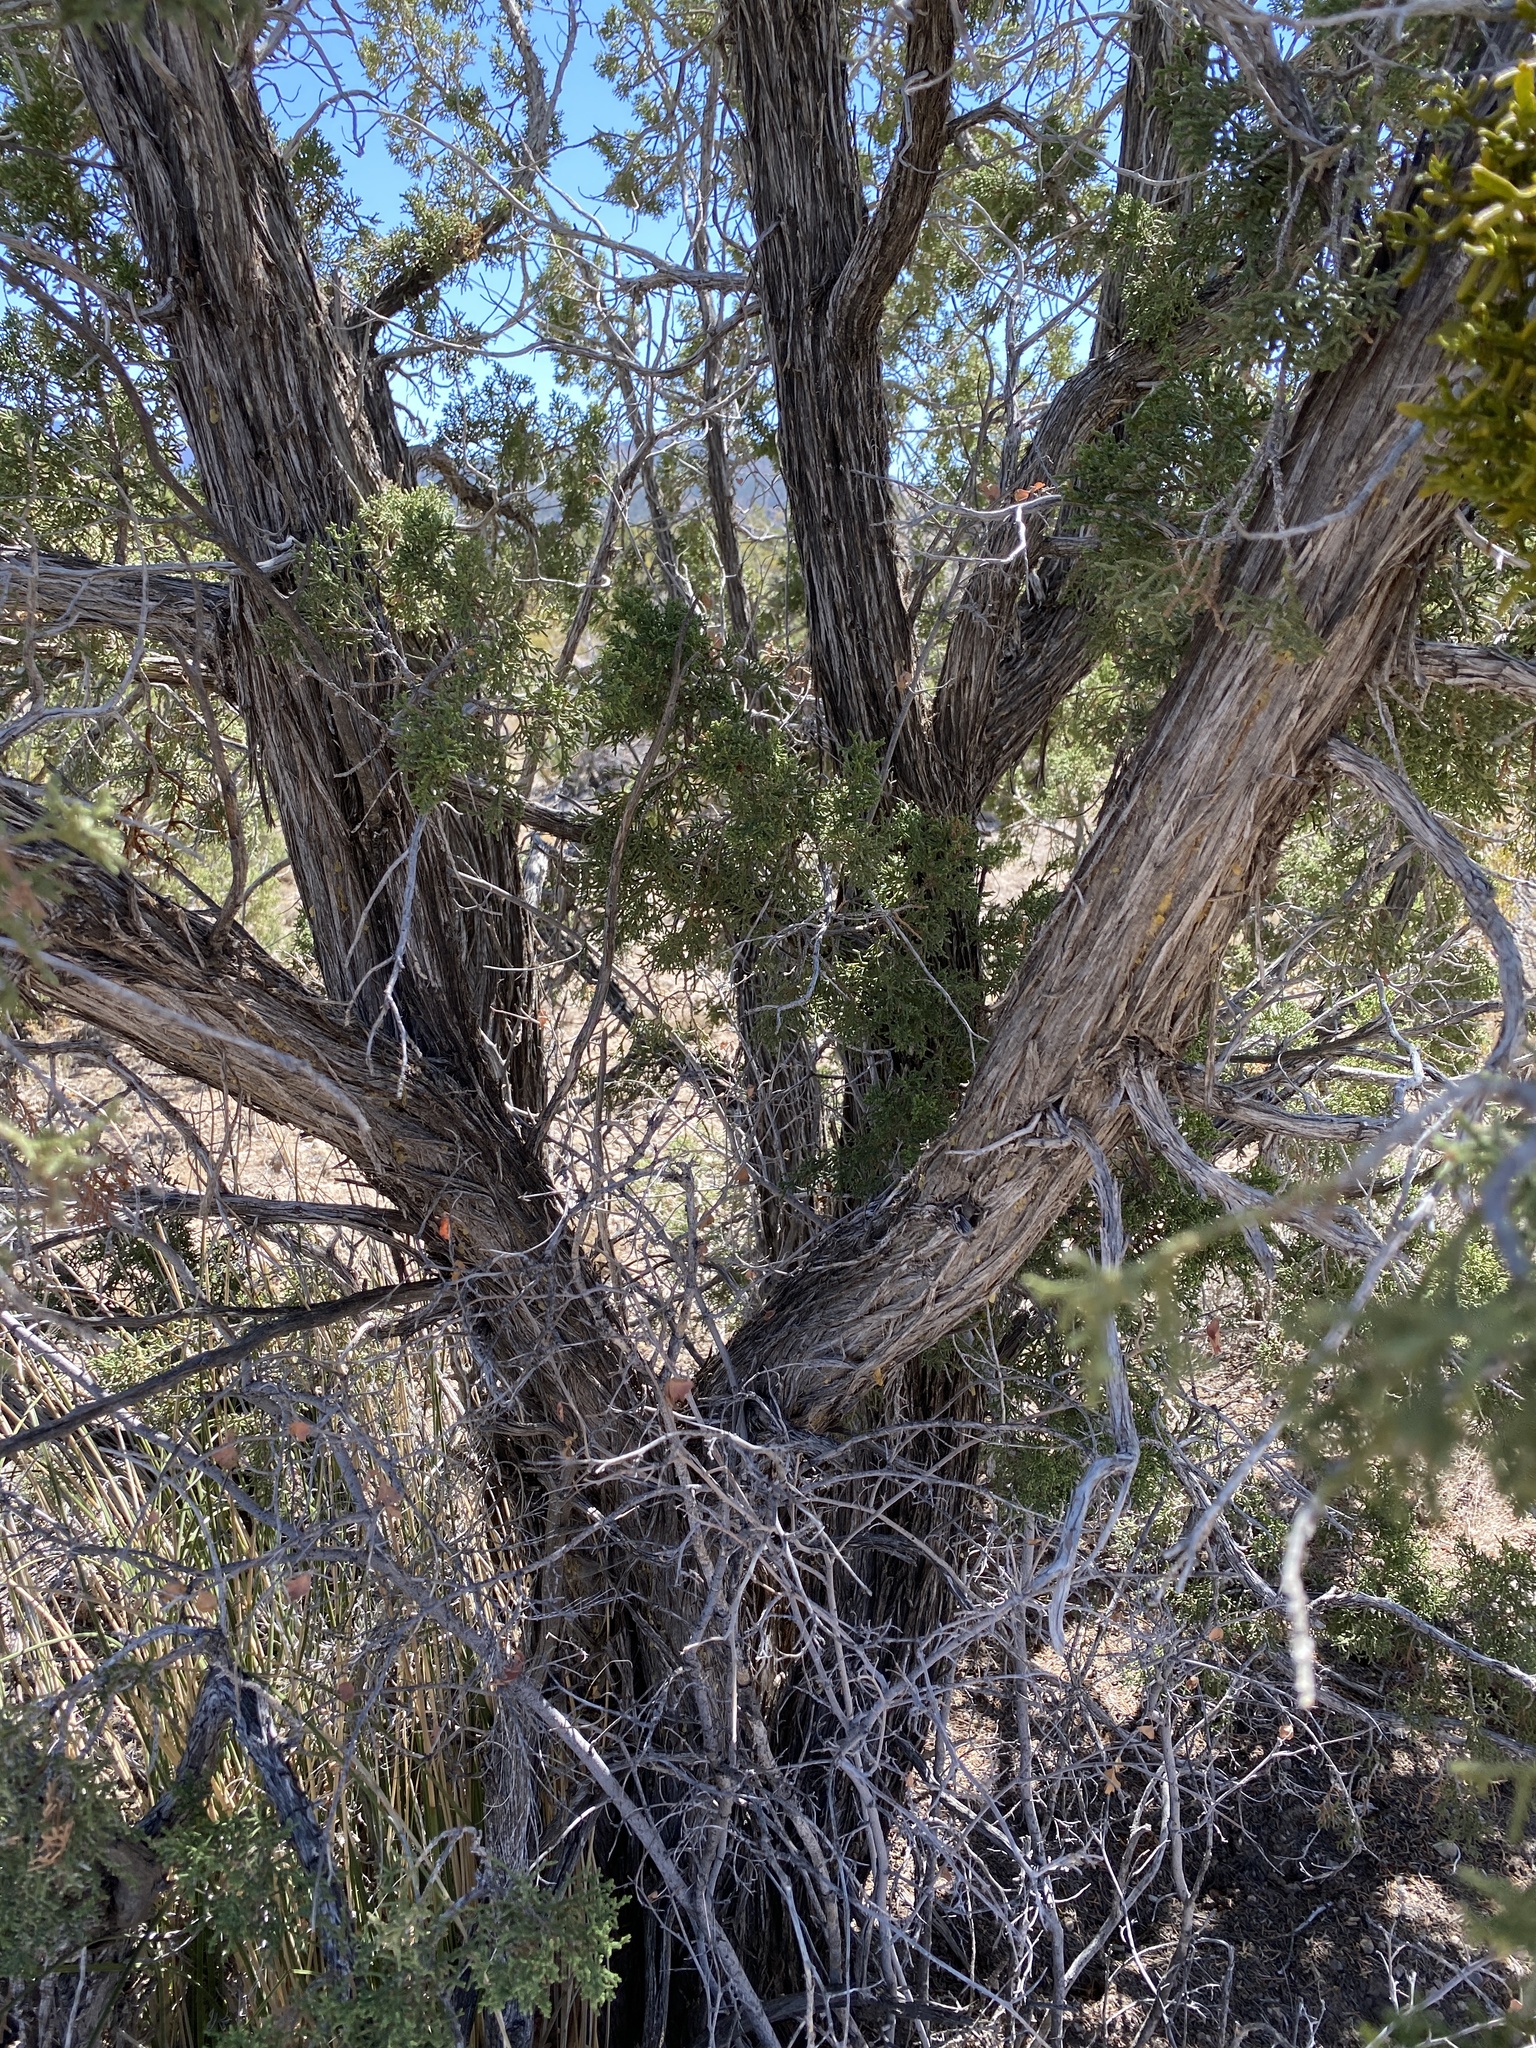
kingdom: Plantae
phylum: Tracheophyta
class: Pinopsida
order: Pinales
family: Cupressaceae
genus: Juniperus
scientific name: Juniperus monosperma
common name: One-seed juniper
